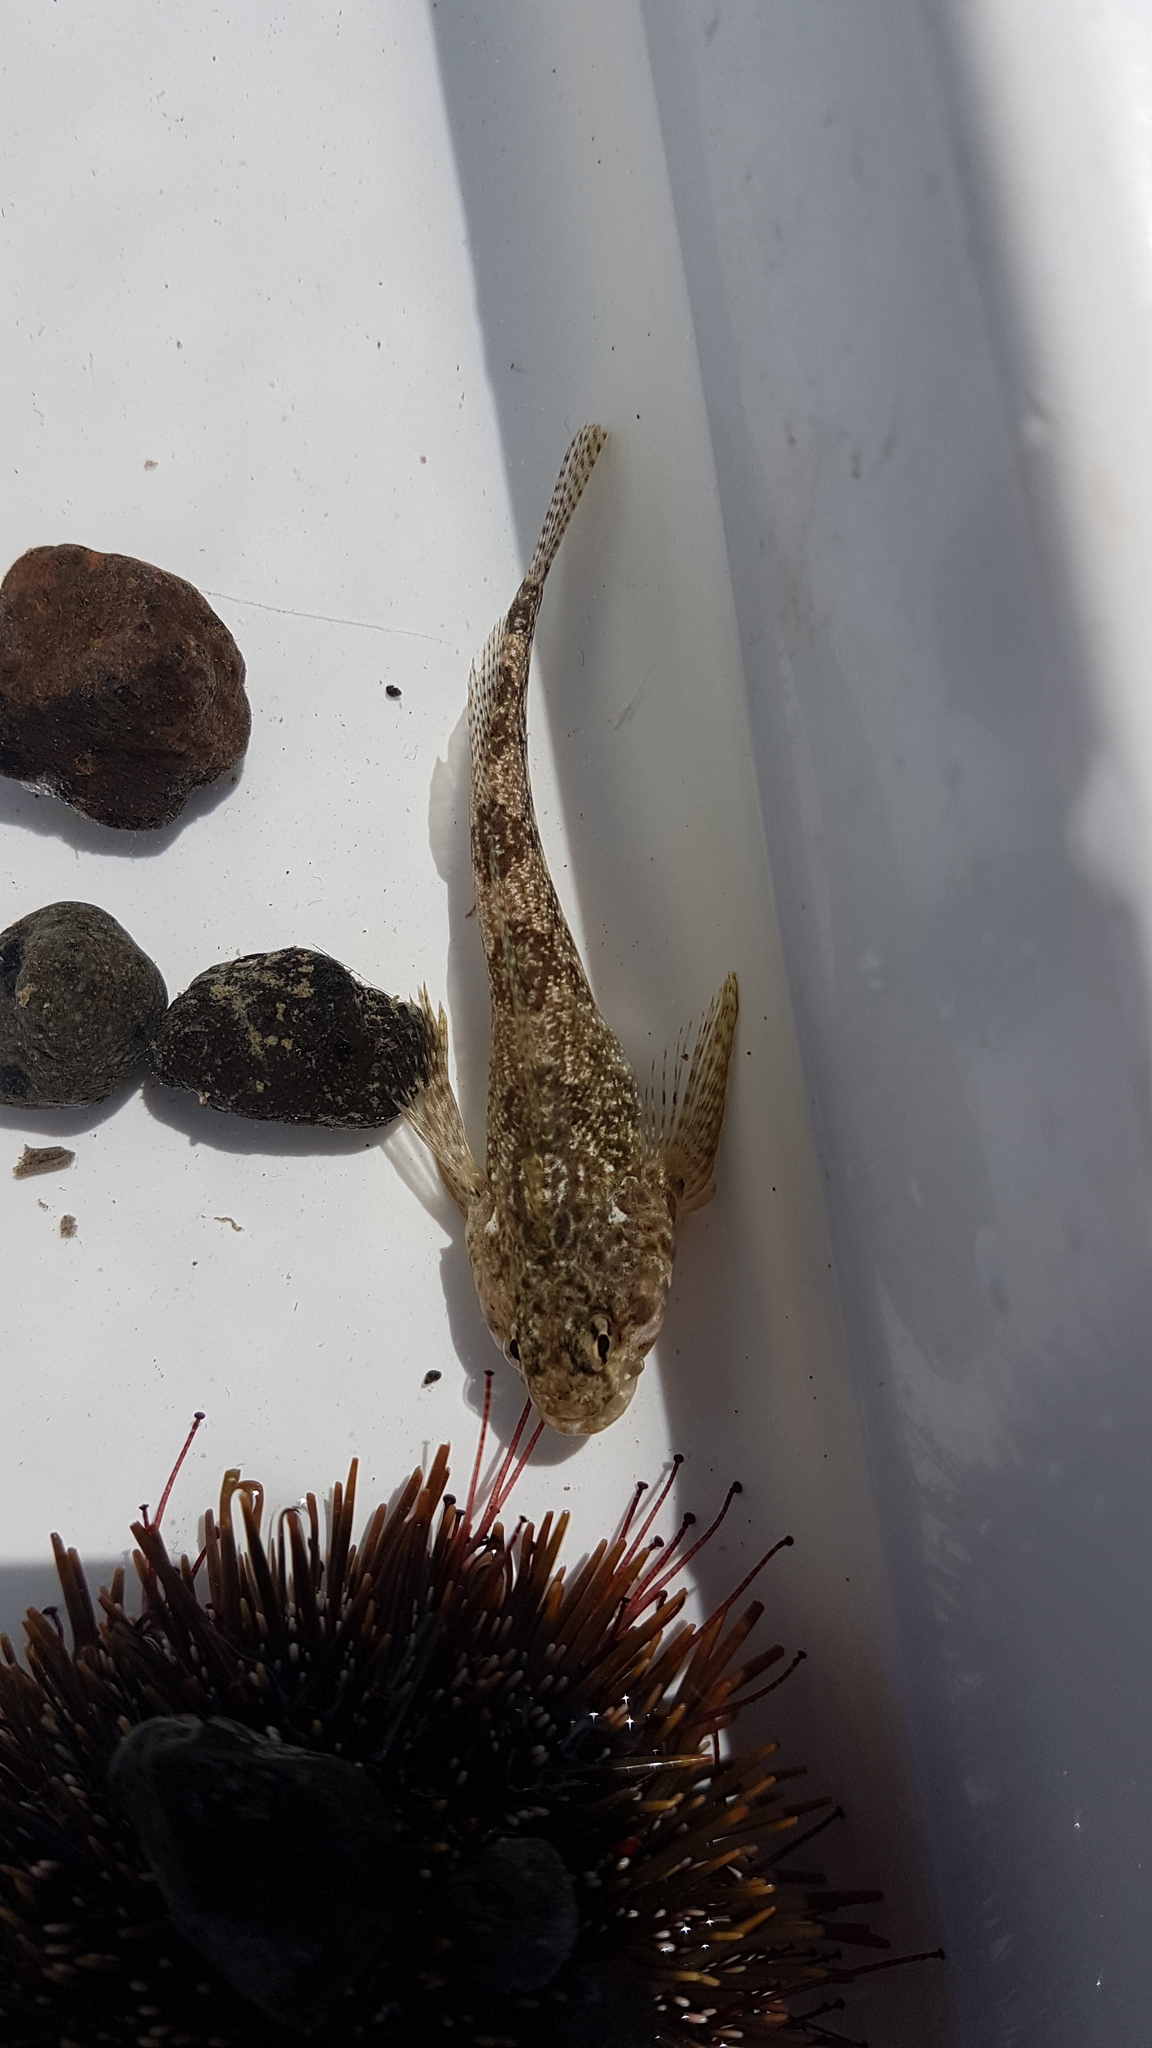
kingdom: Animalia
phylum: Chordata
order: Perciformes
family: Tripterygiidae
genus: Bellapiscis
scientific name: Bellapiscis medius
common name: Twister
